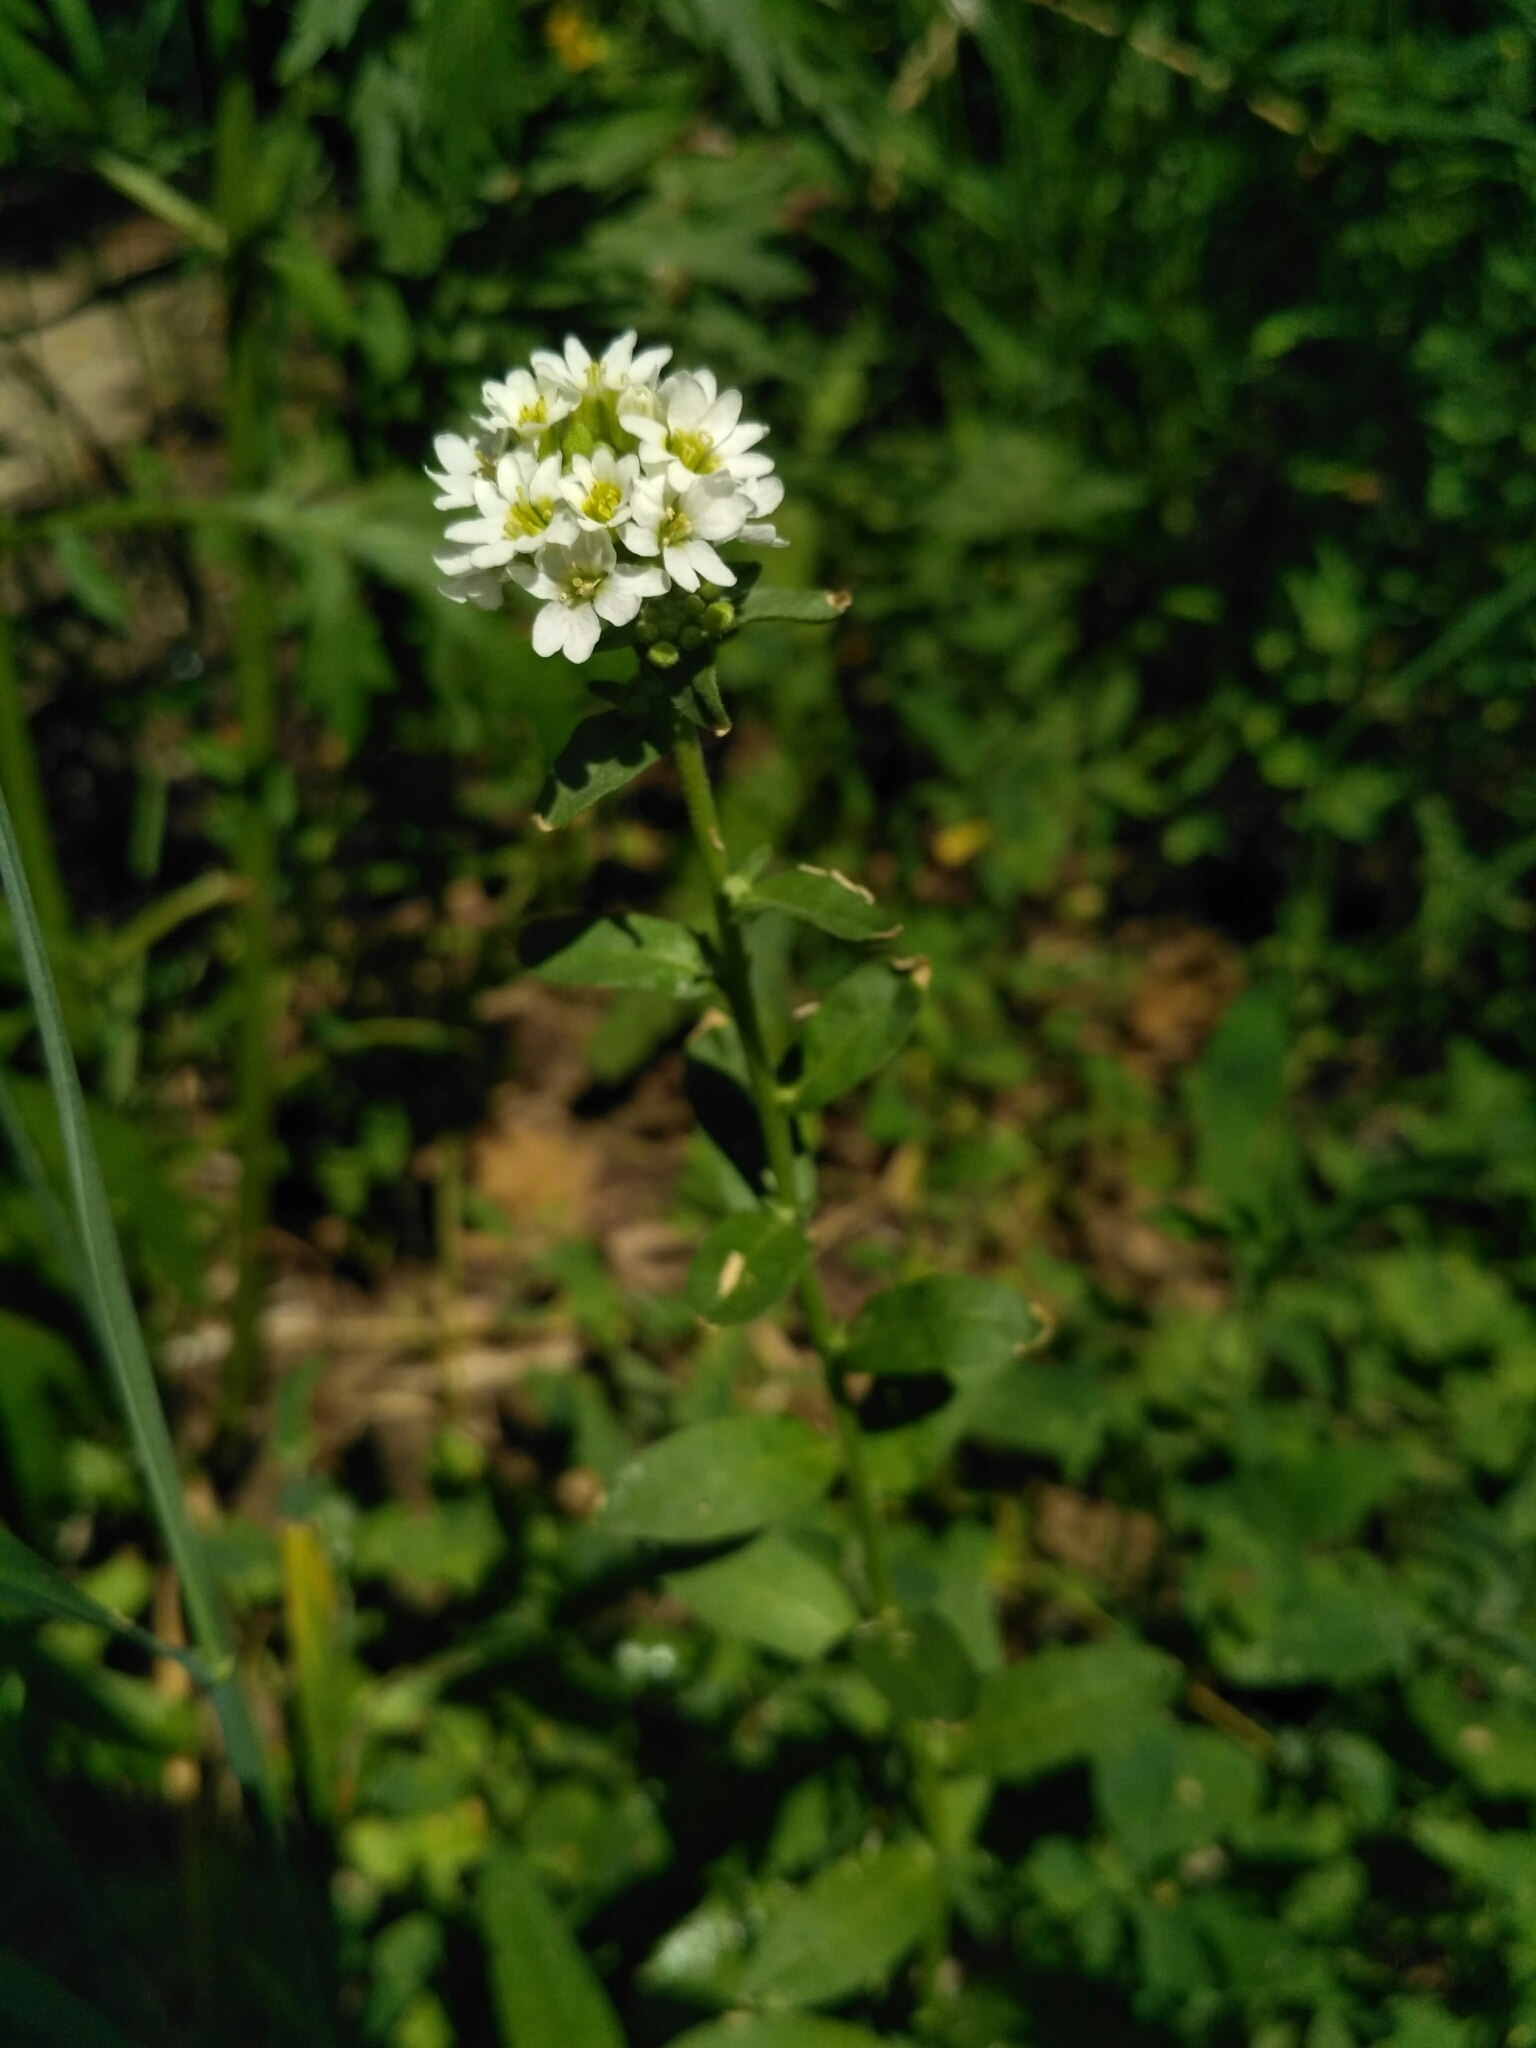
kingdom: Plantae
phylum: Tracheophyta
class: Magnoliopsida
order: Brassicales
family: Brassicaceae
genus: Berteroa
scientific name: Berteroa incana
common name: Hoary alison
